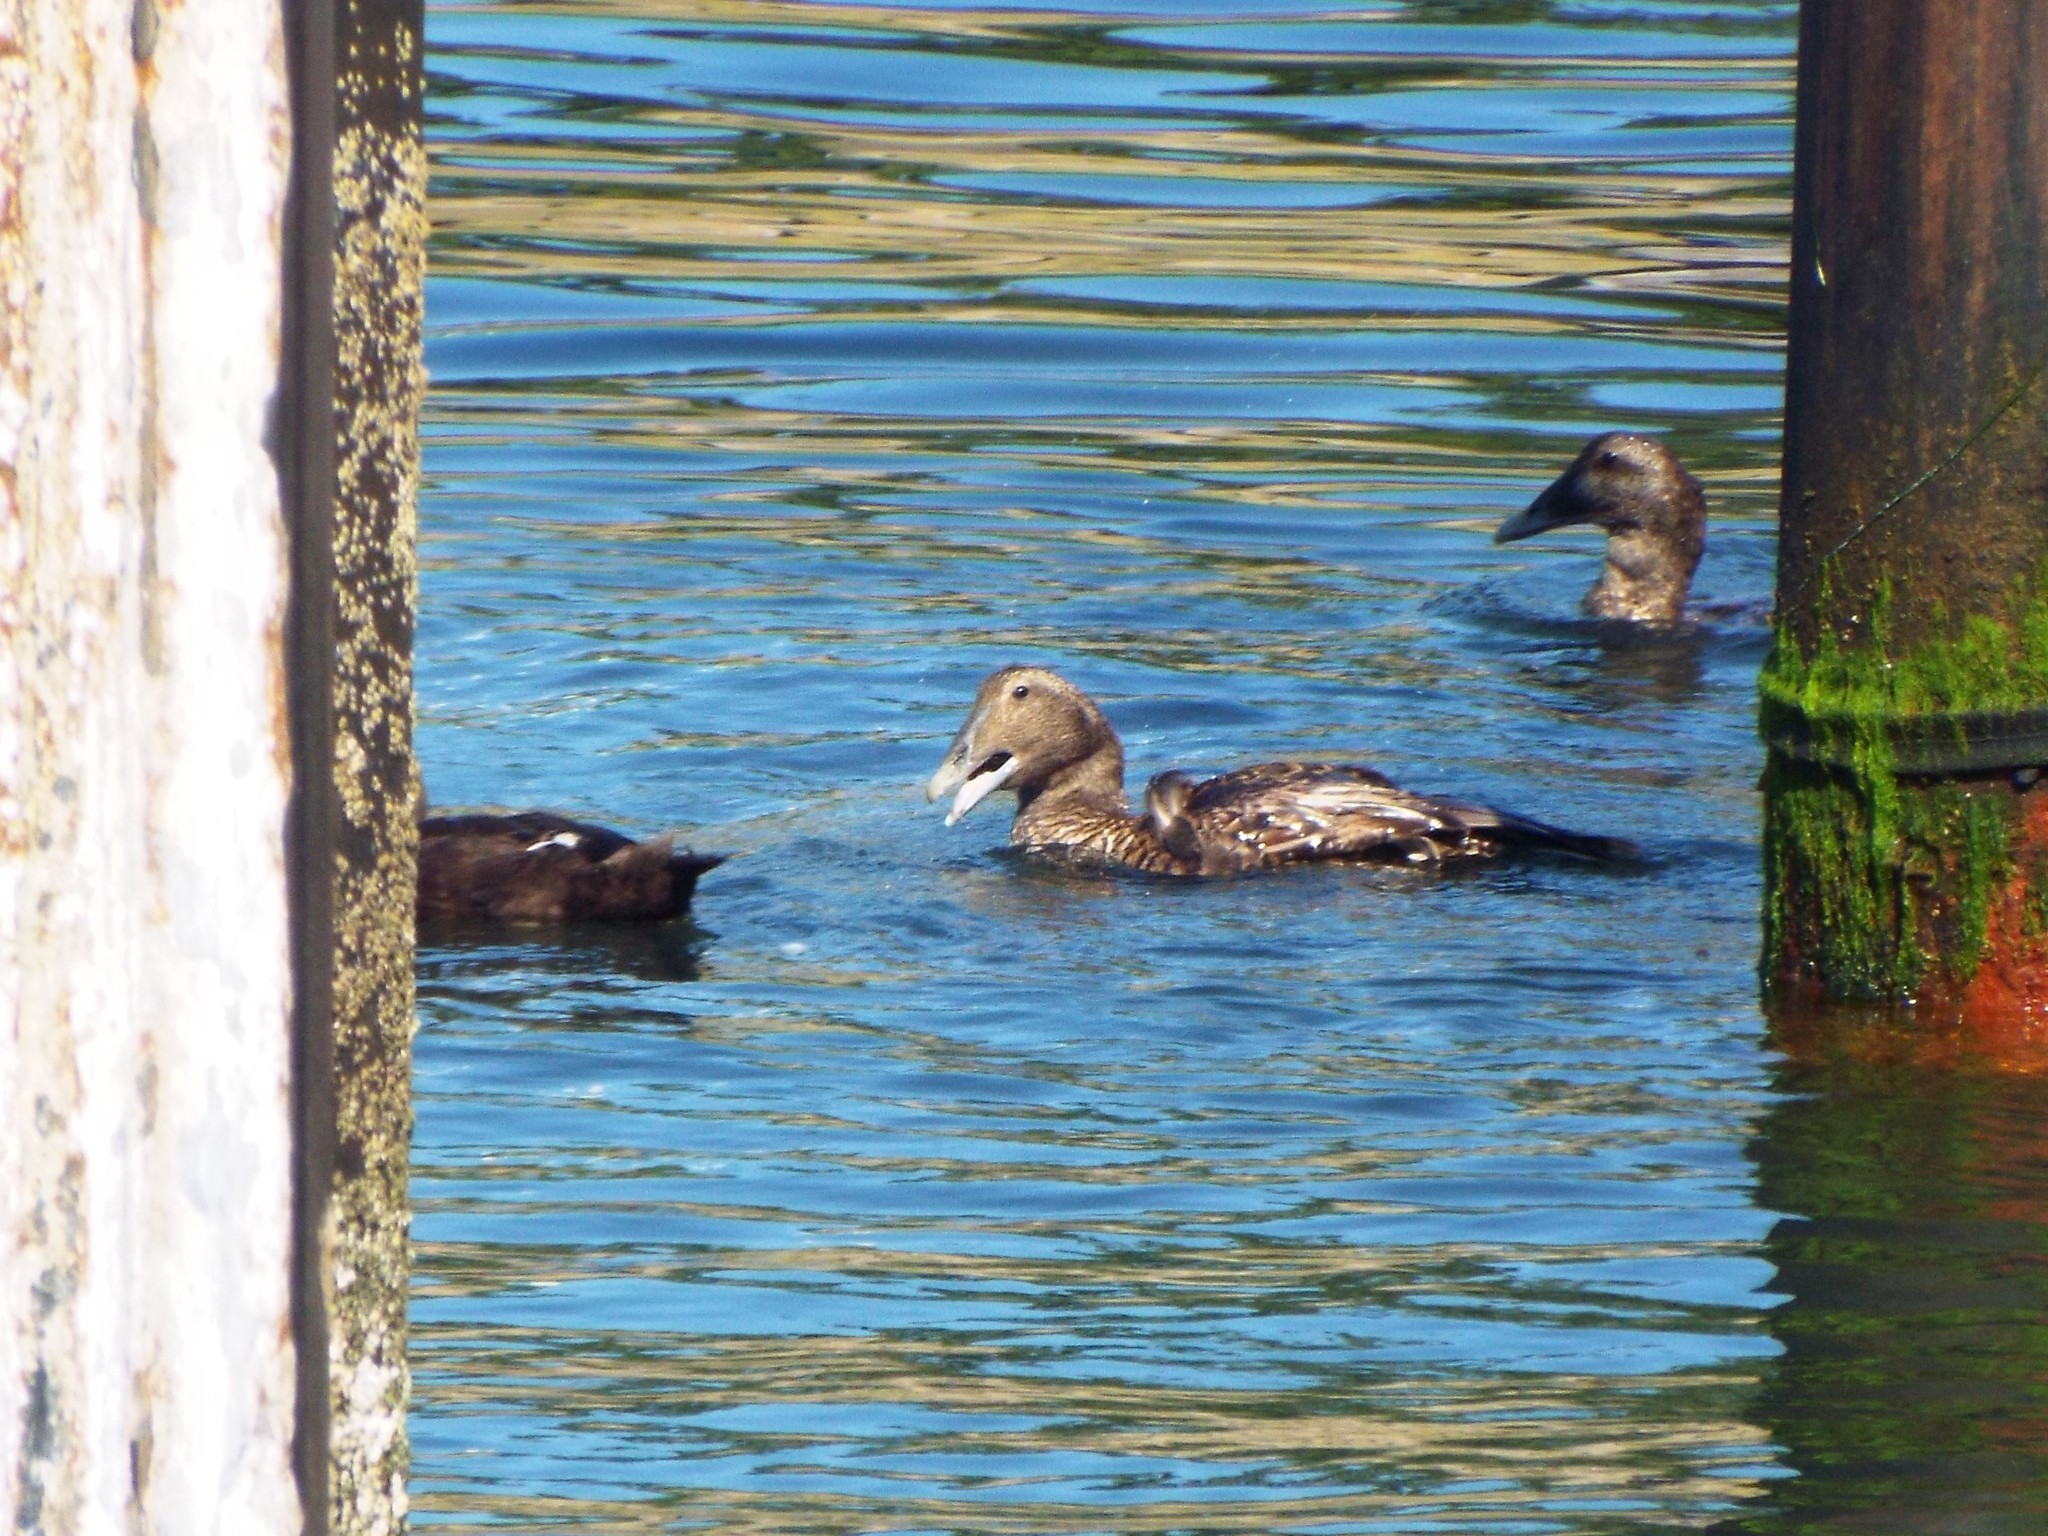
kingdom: Animalia
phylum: Chordata
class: Aves
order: Anseriformes
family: Anatidae
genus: Somateria
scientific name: Somateria mollissima
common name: Common eider
